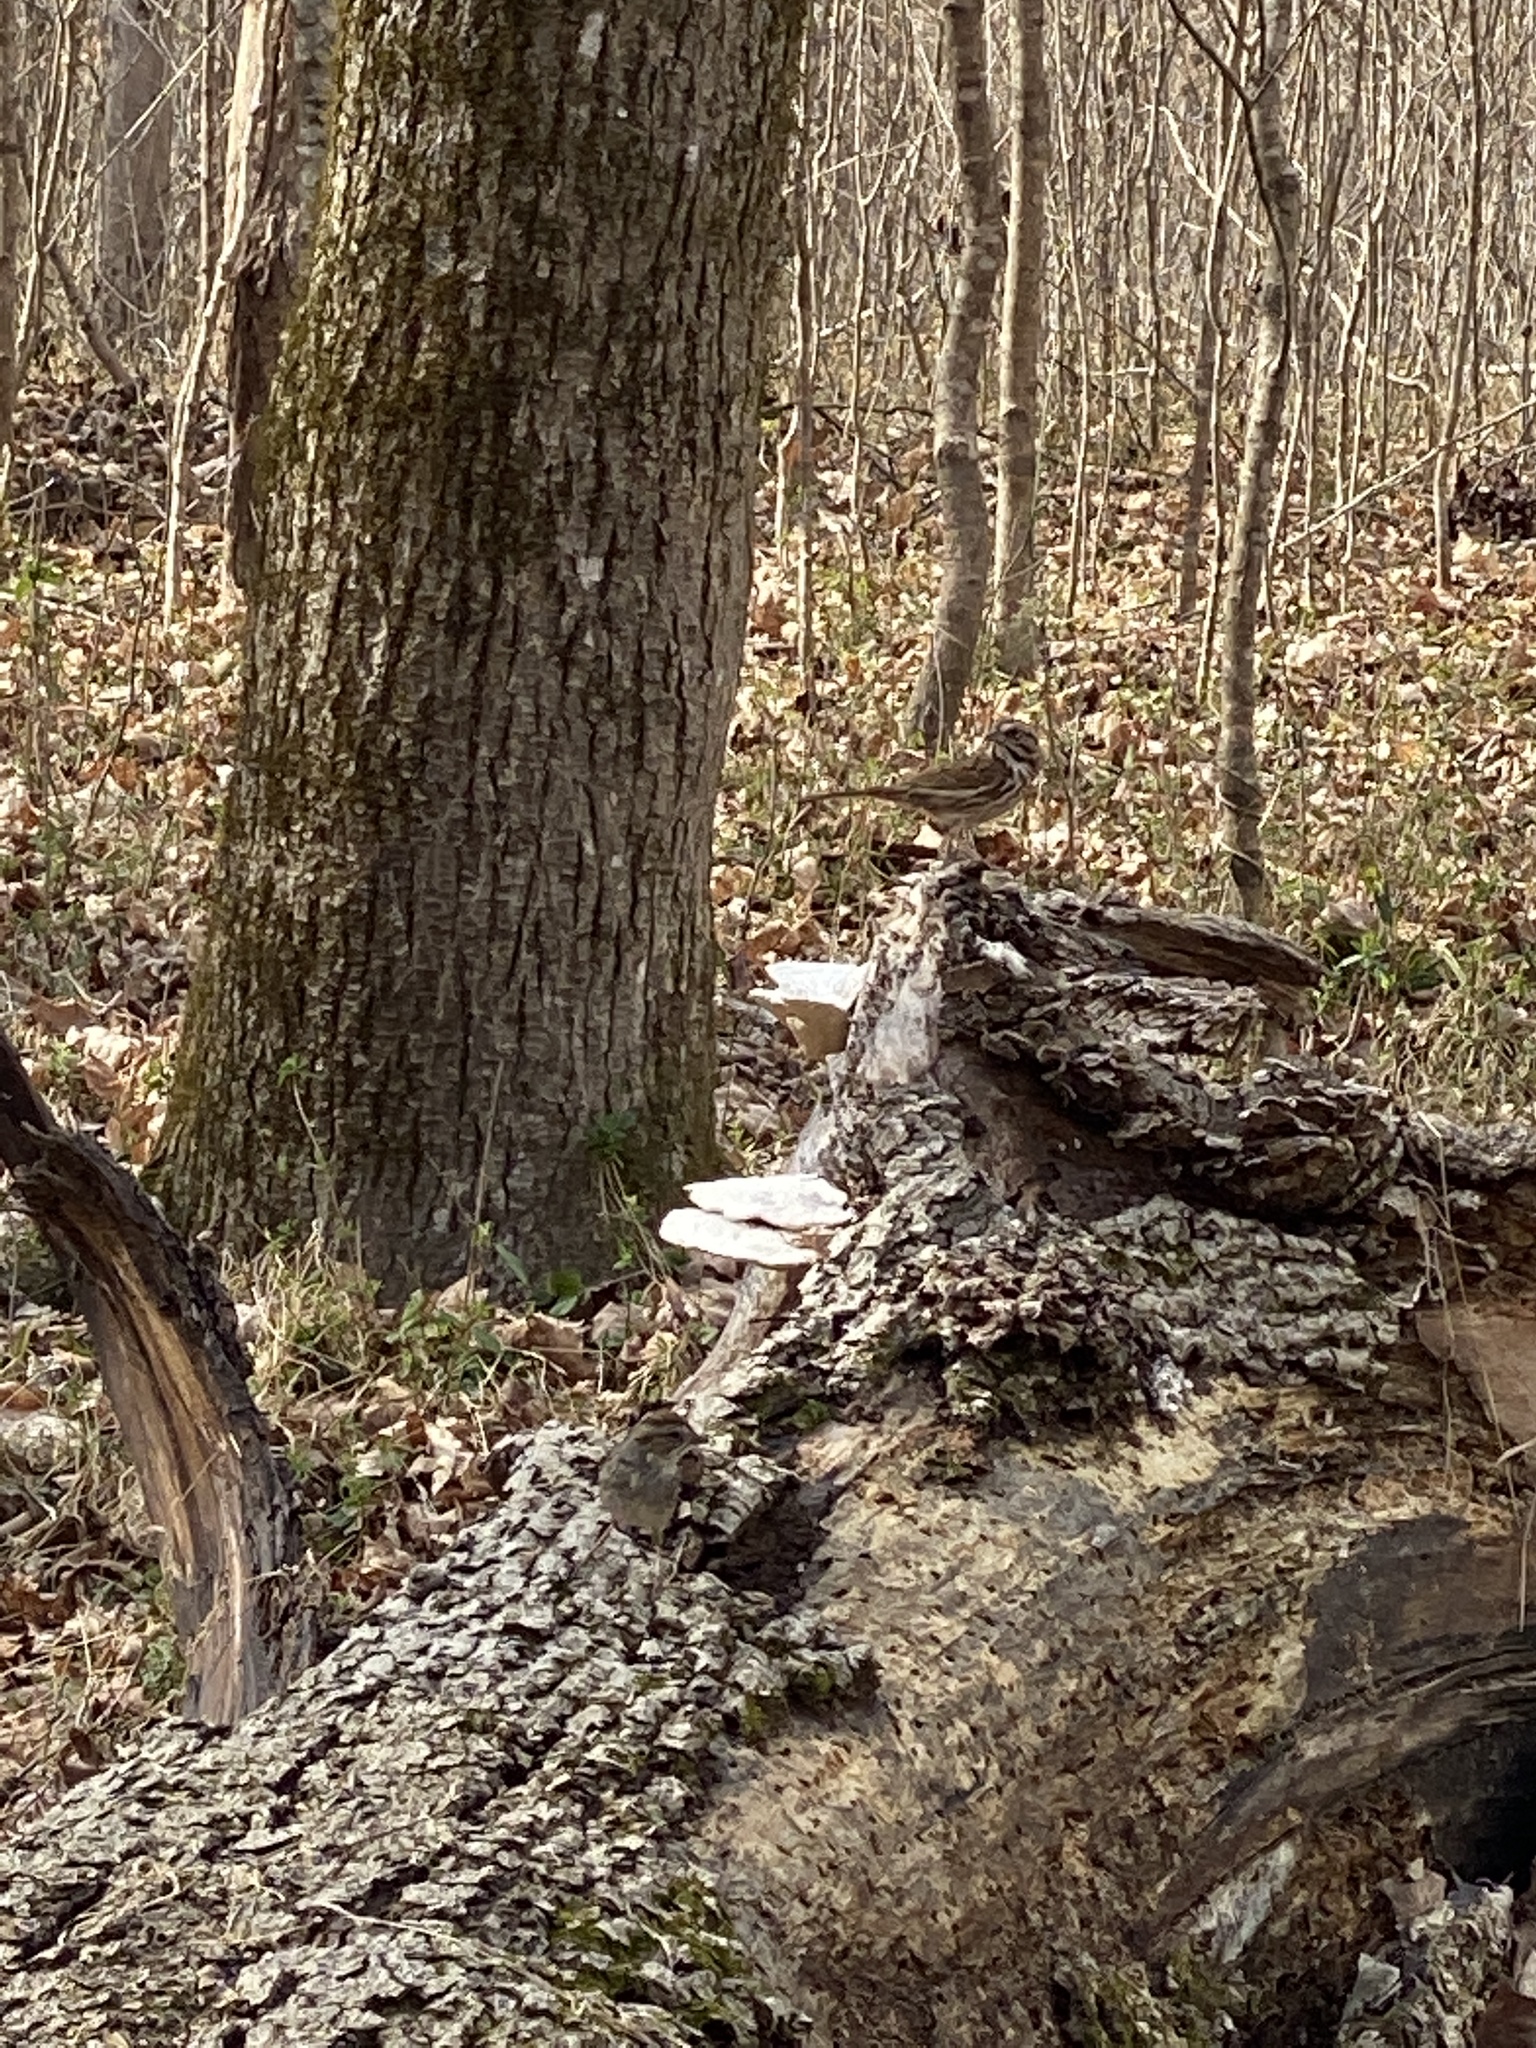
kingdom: Animalia
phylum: Chordata
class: Aves
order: Passeriformes
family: Passerellidae
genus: Melospiza
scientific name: Melospiza melodia
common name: Song sparrow
